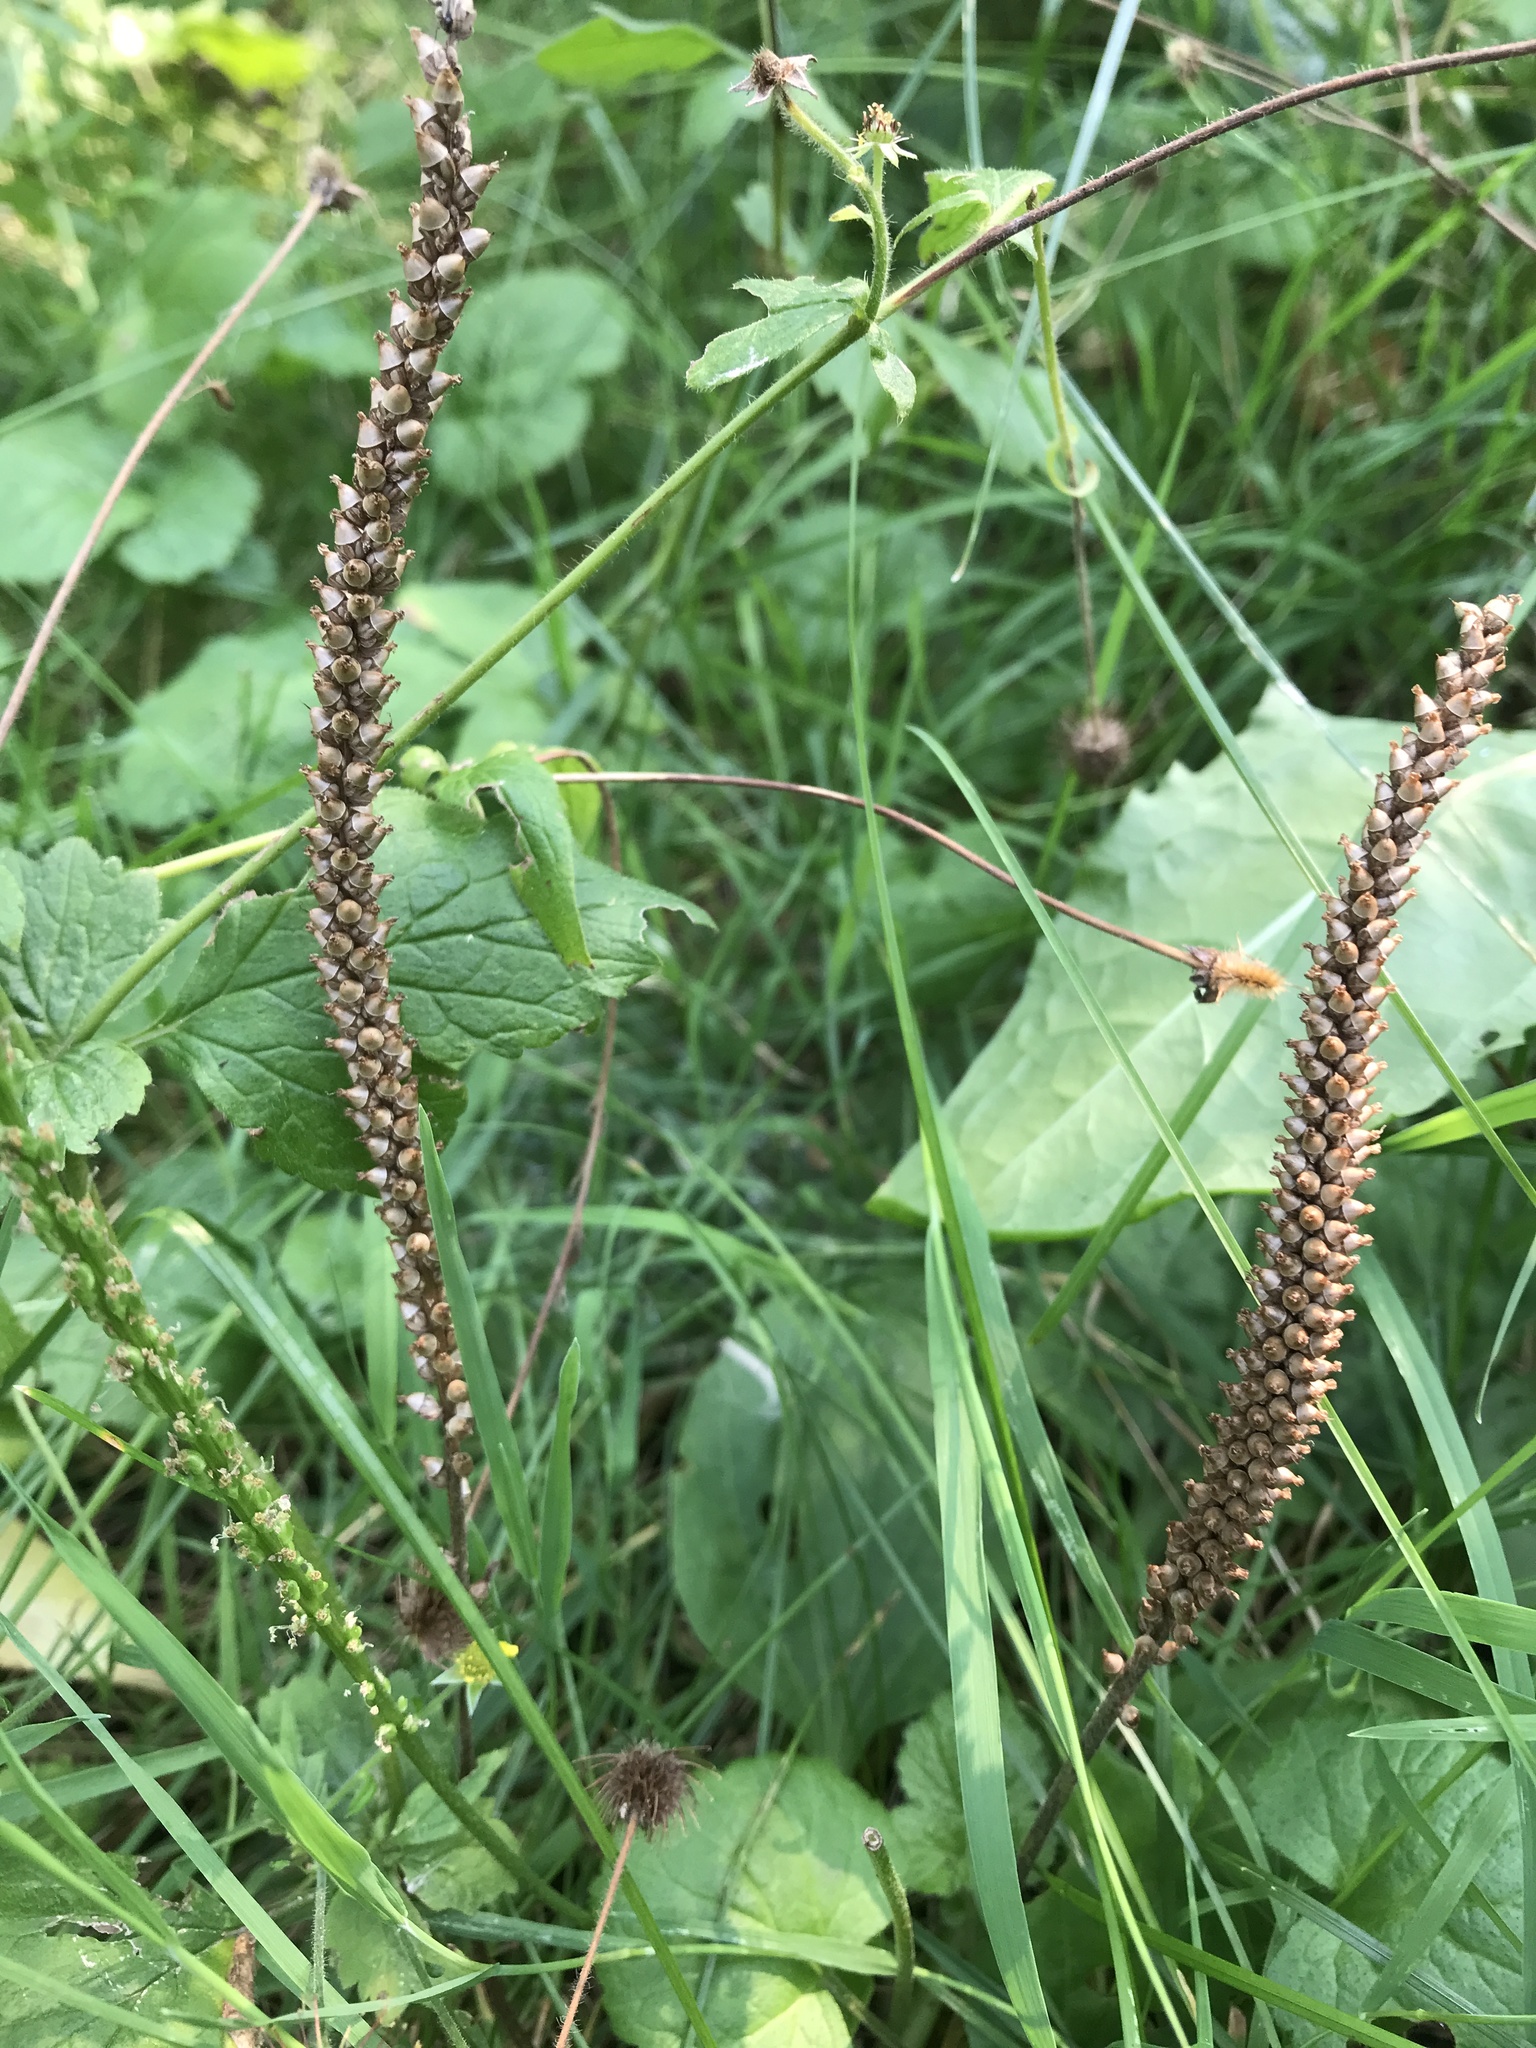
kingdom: Plantae
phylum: Tracheophyta
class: Magnoliopsida
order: Lamiales
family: Plantaginaceae
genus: Plantago
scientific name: Plantago major
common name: Common plantain
